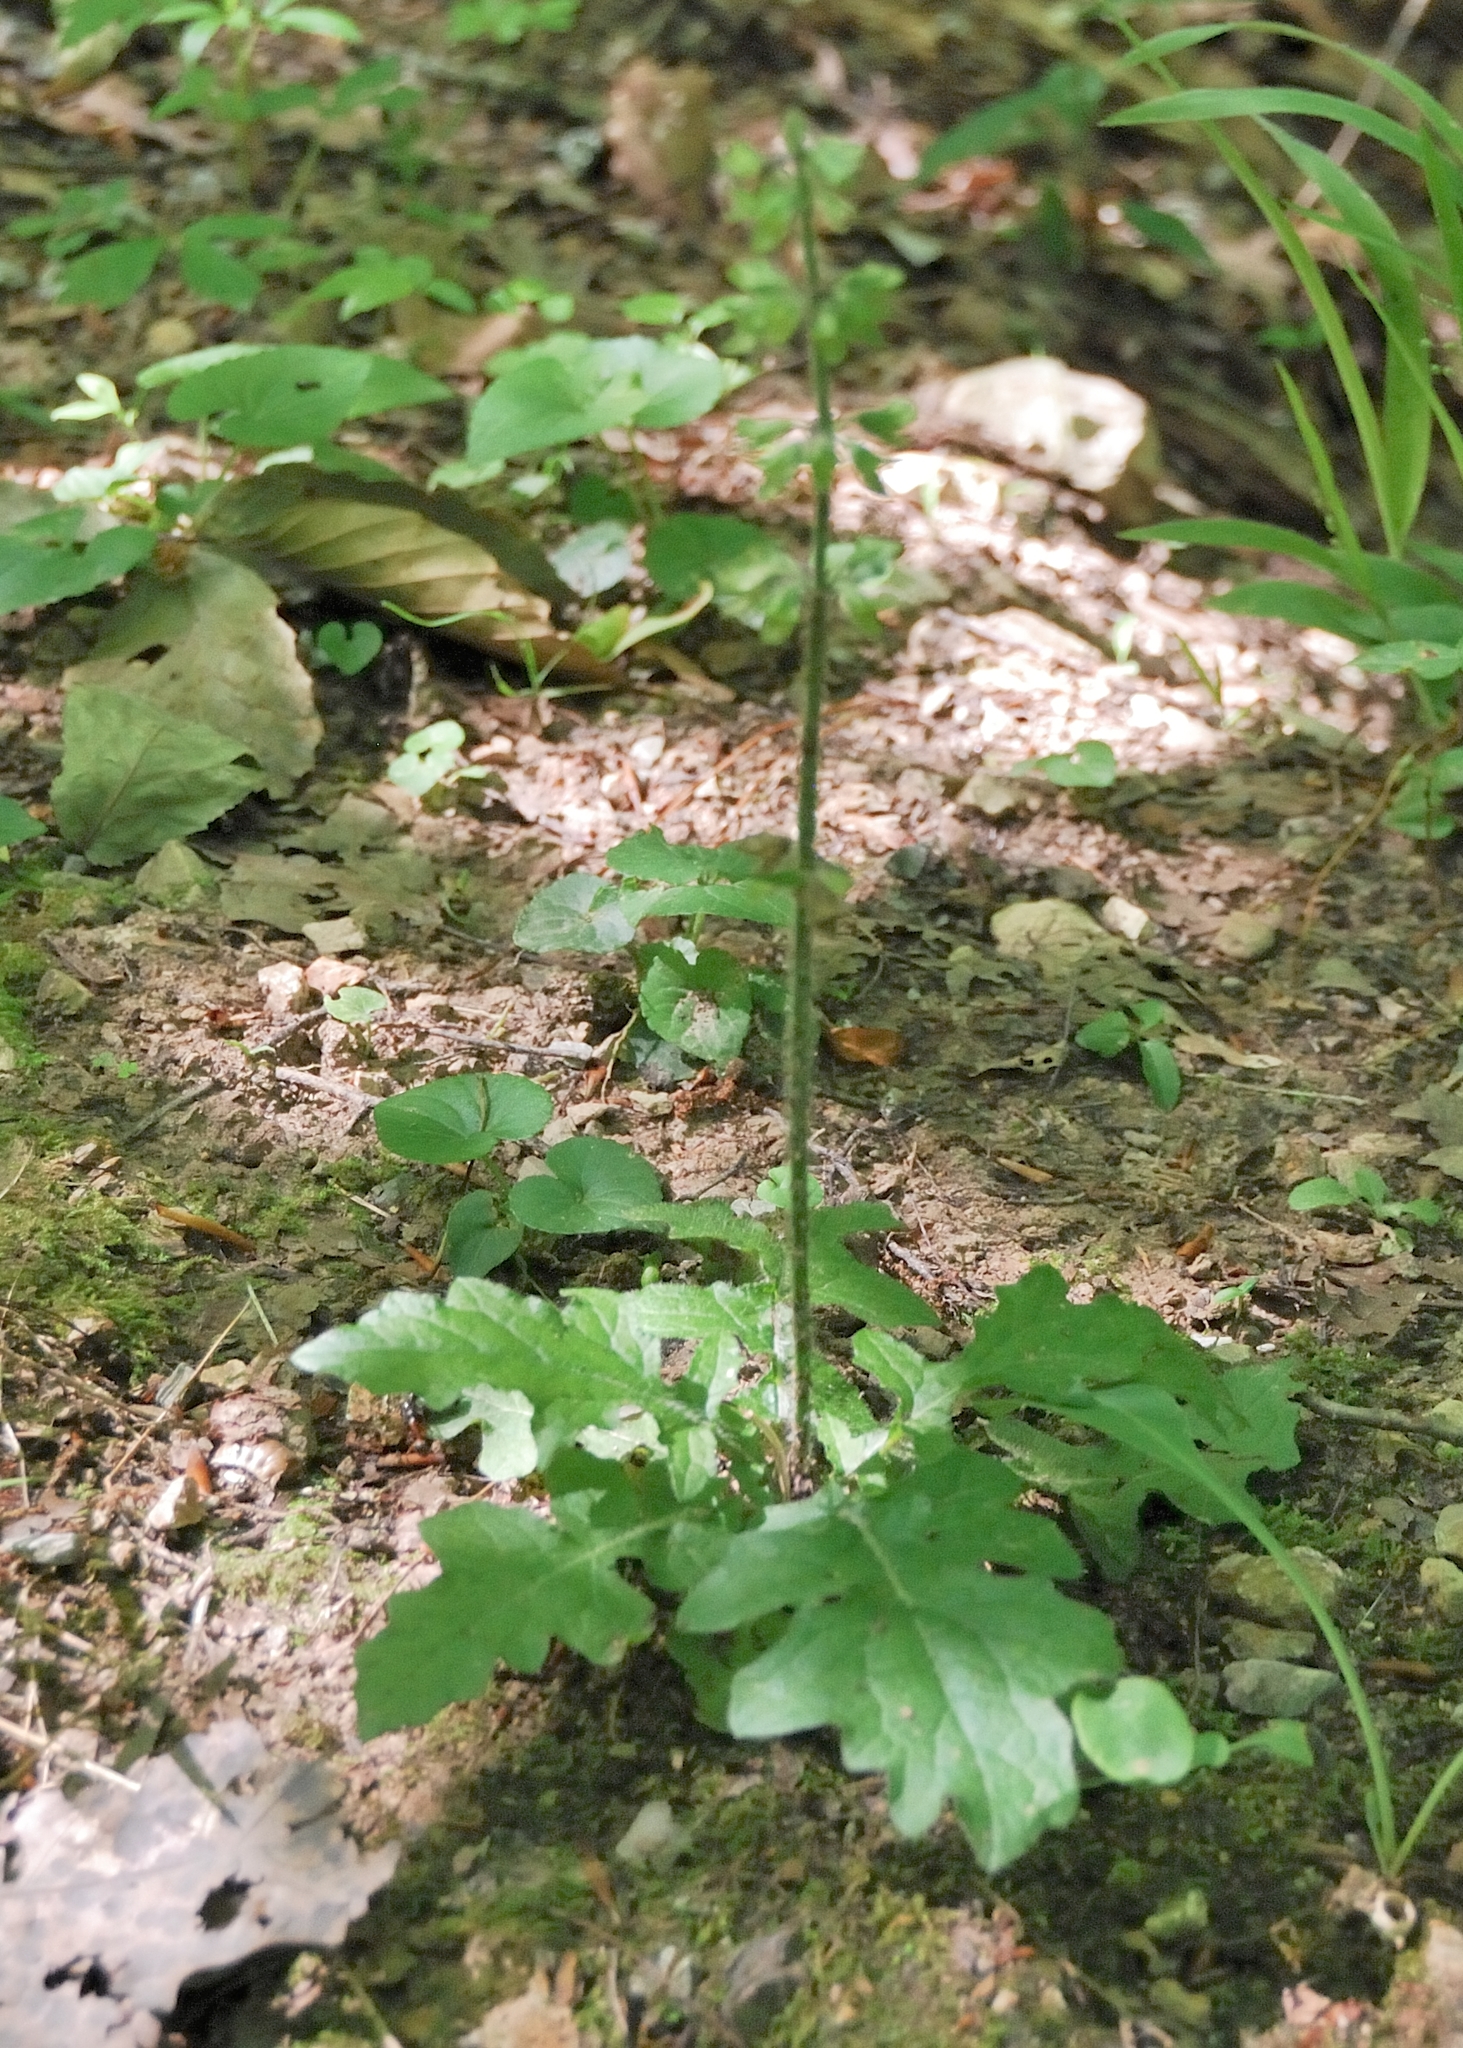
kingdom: Plantae
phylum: Tracheophyta
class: Magnoliopsida
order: Lamiales
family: Lamiaceae
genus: Salvia
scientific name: Salvia lyrata
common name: Cancerweed
